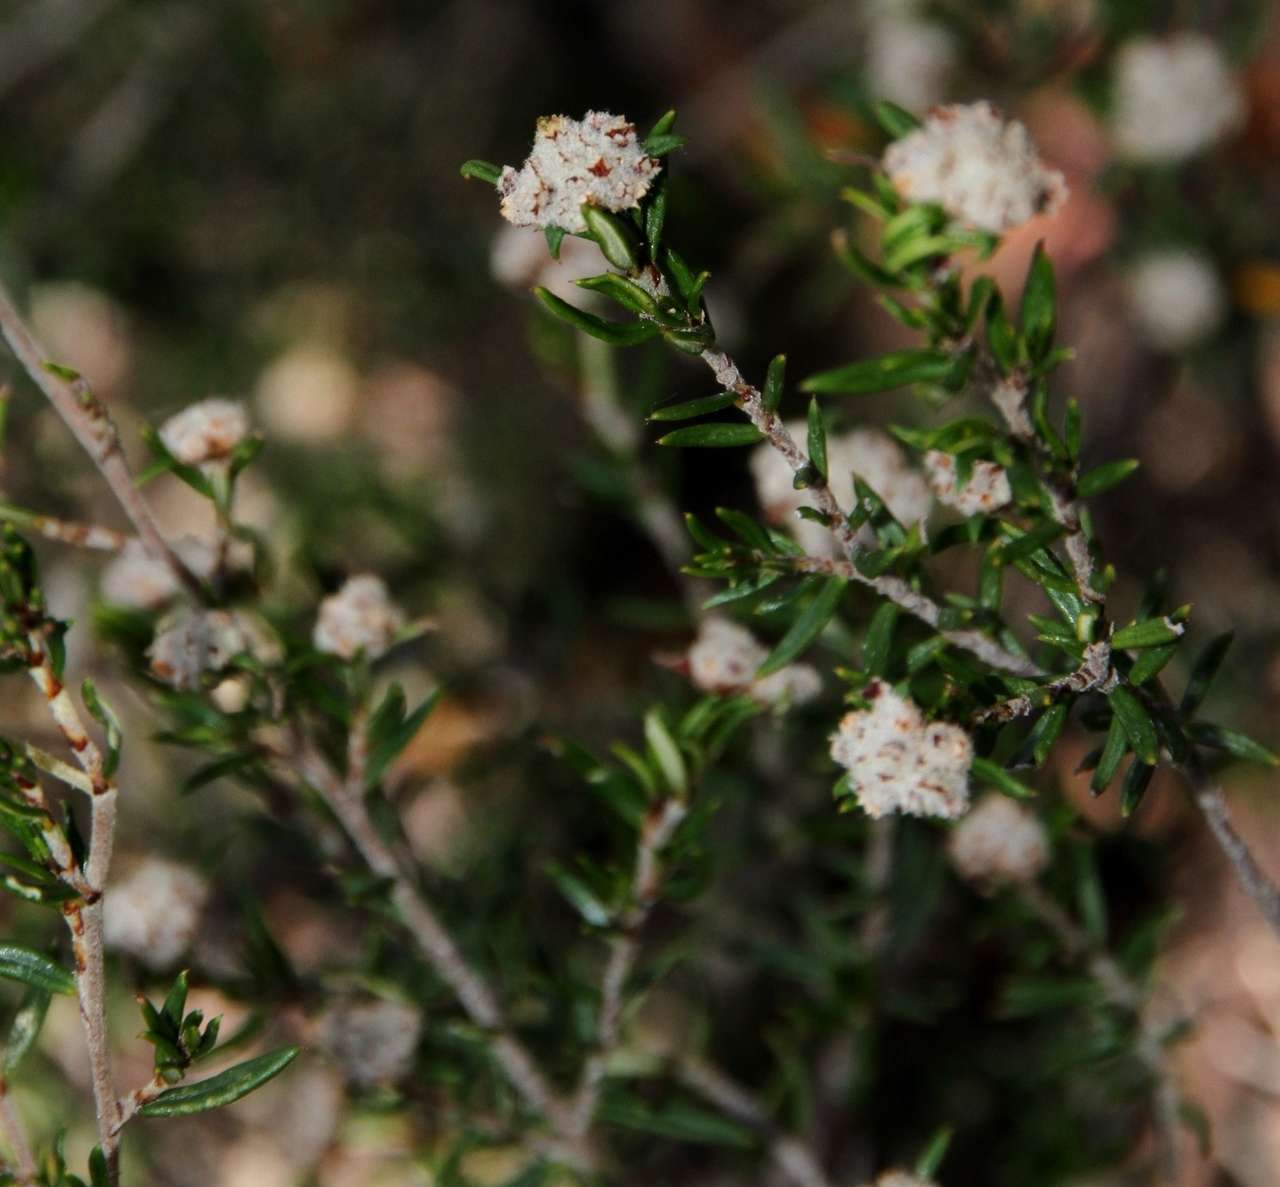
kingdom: Plantae
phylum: Tracheophyta
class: Magnoliopsida
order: Rosales
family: Rhamnaceae
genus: Spyridium
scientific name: Spyridium eriocephalum
